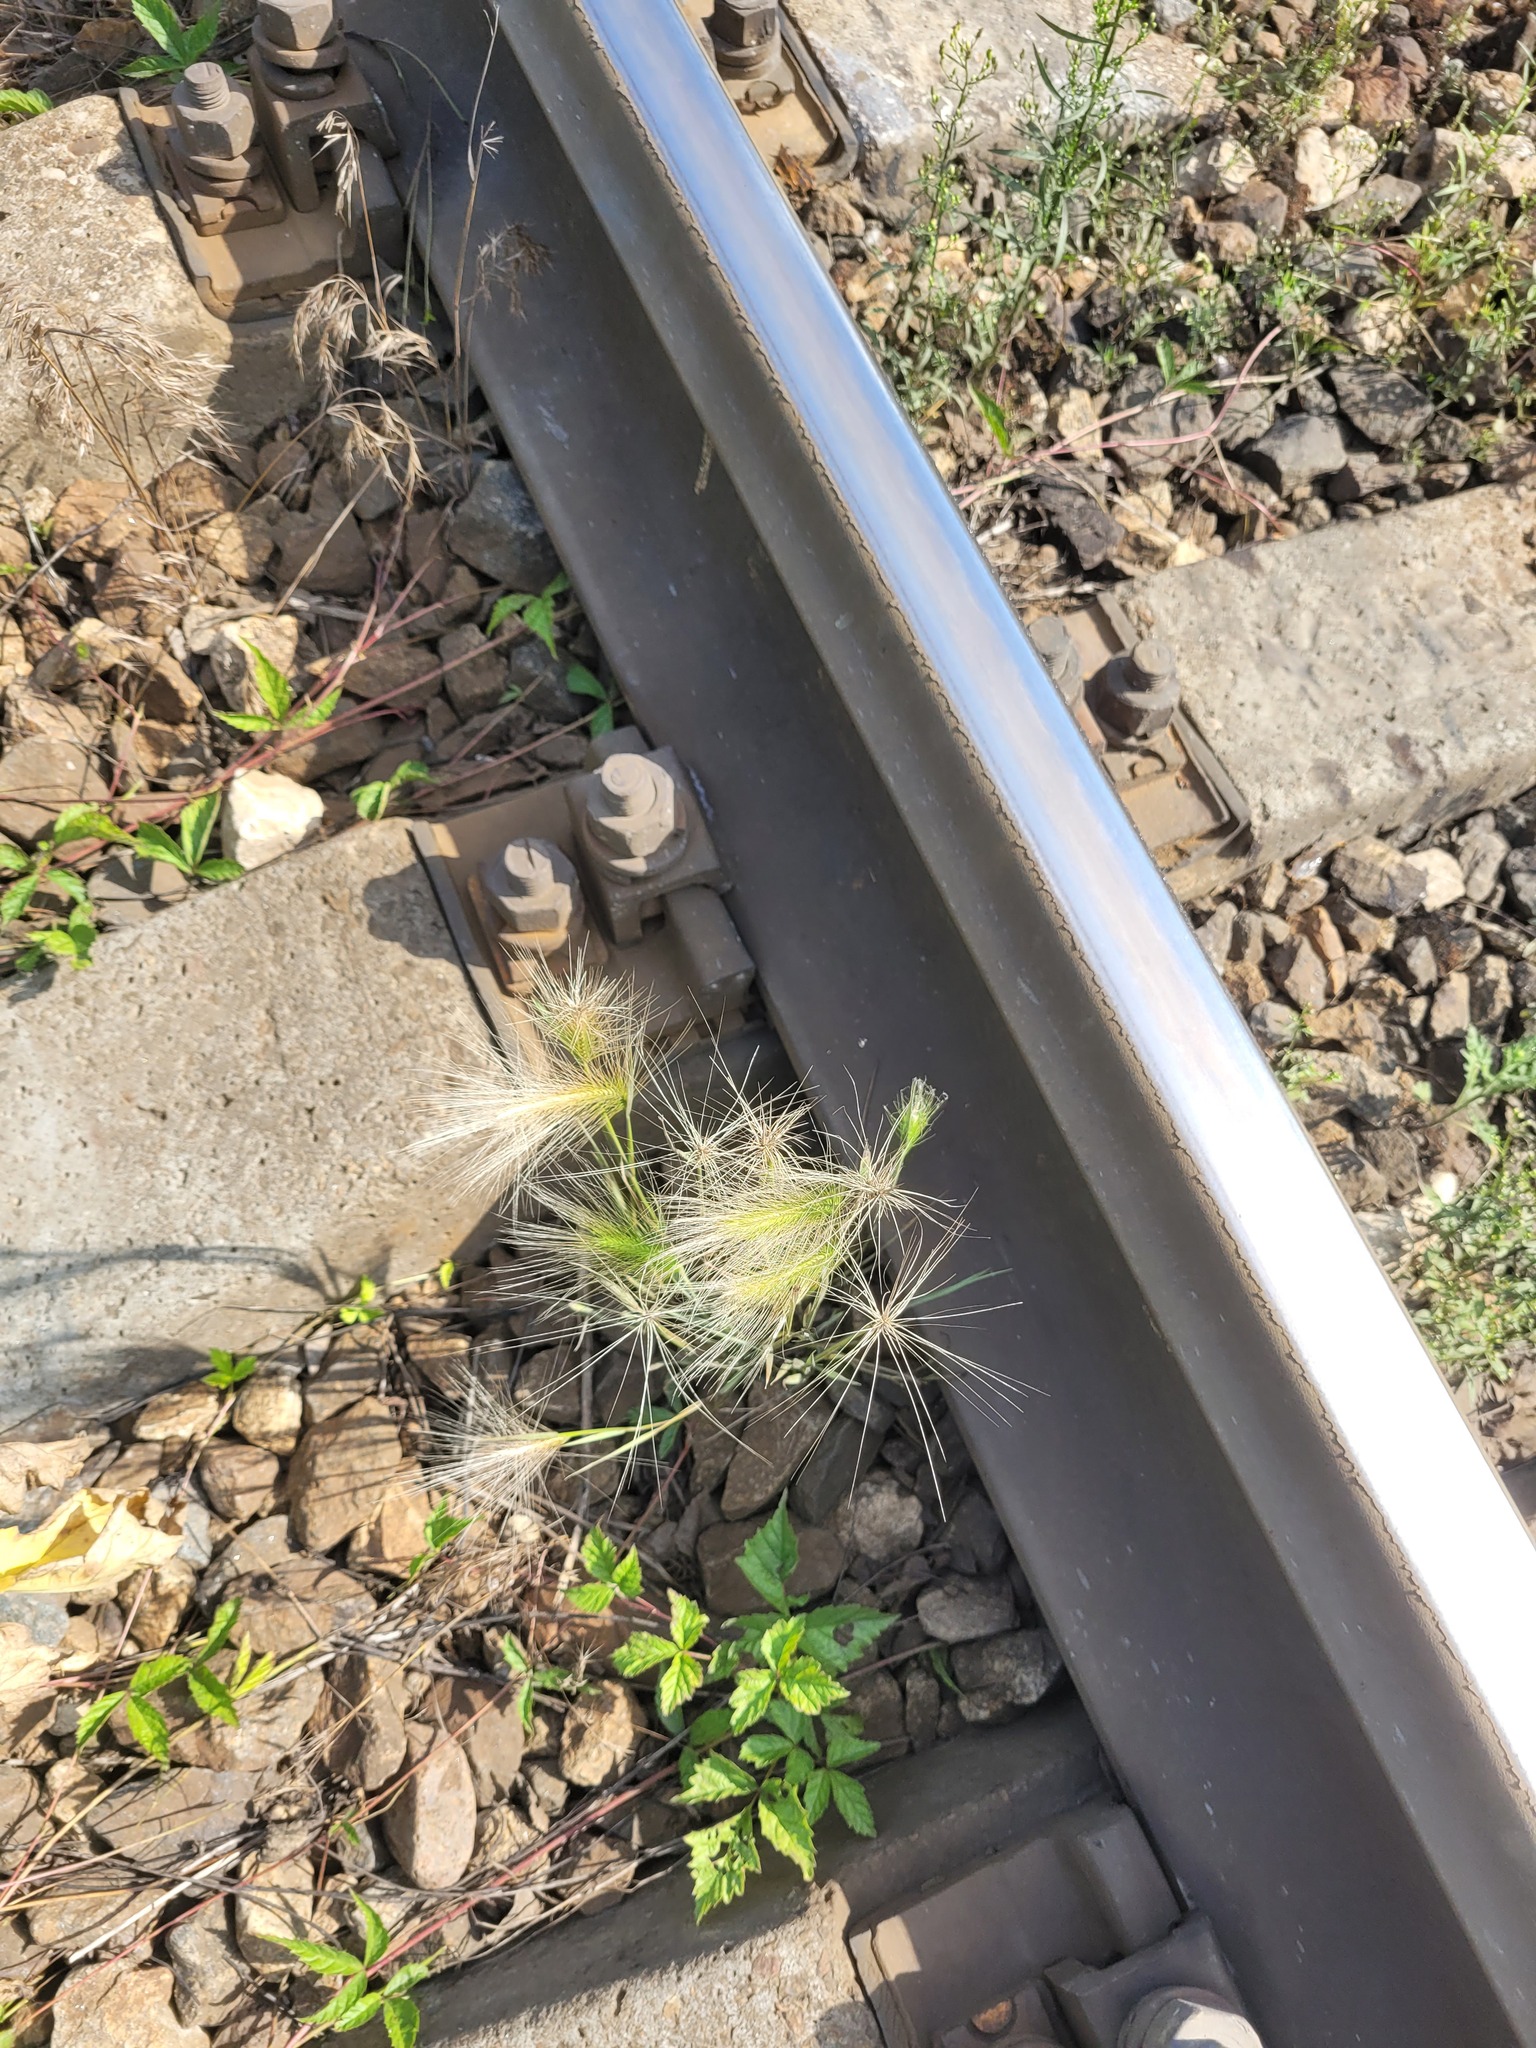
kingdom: Plantae
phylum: Tracheophyta
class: Liliopsida
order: Poales
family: Poaceae
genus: Hordeum
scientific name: Hordeum jubatum
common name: Foxtail barley
